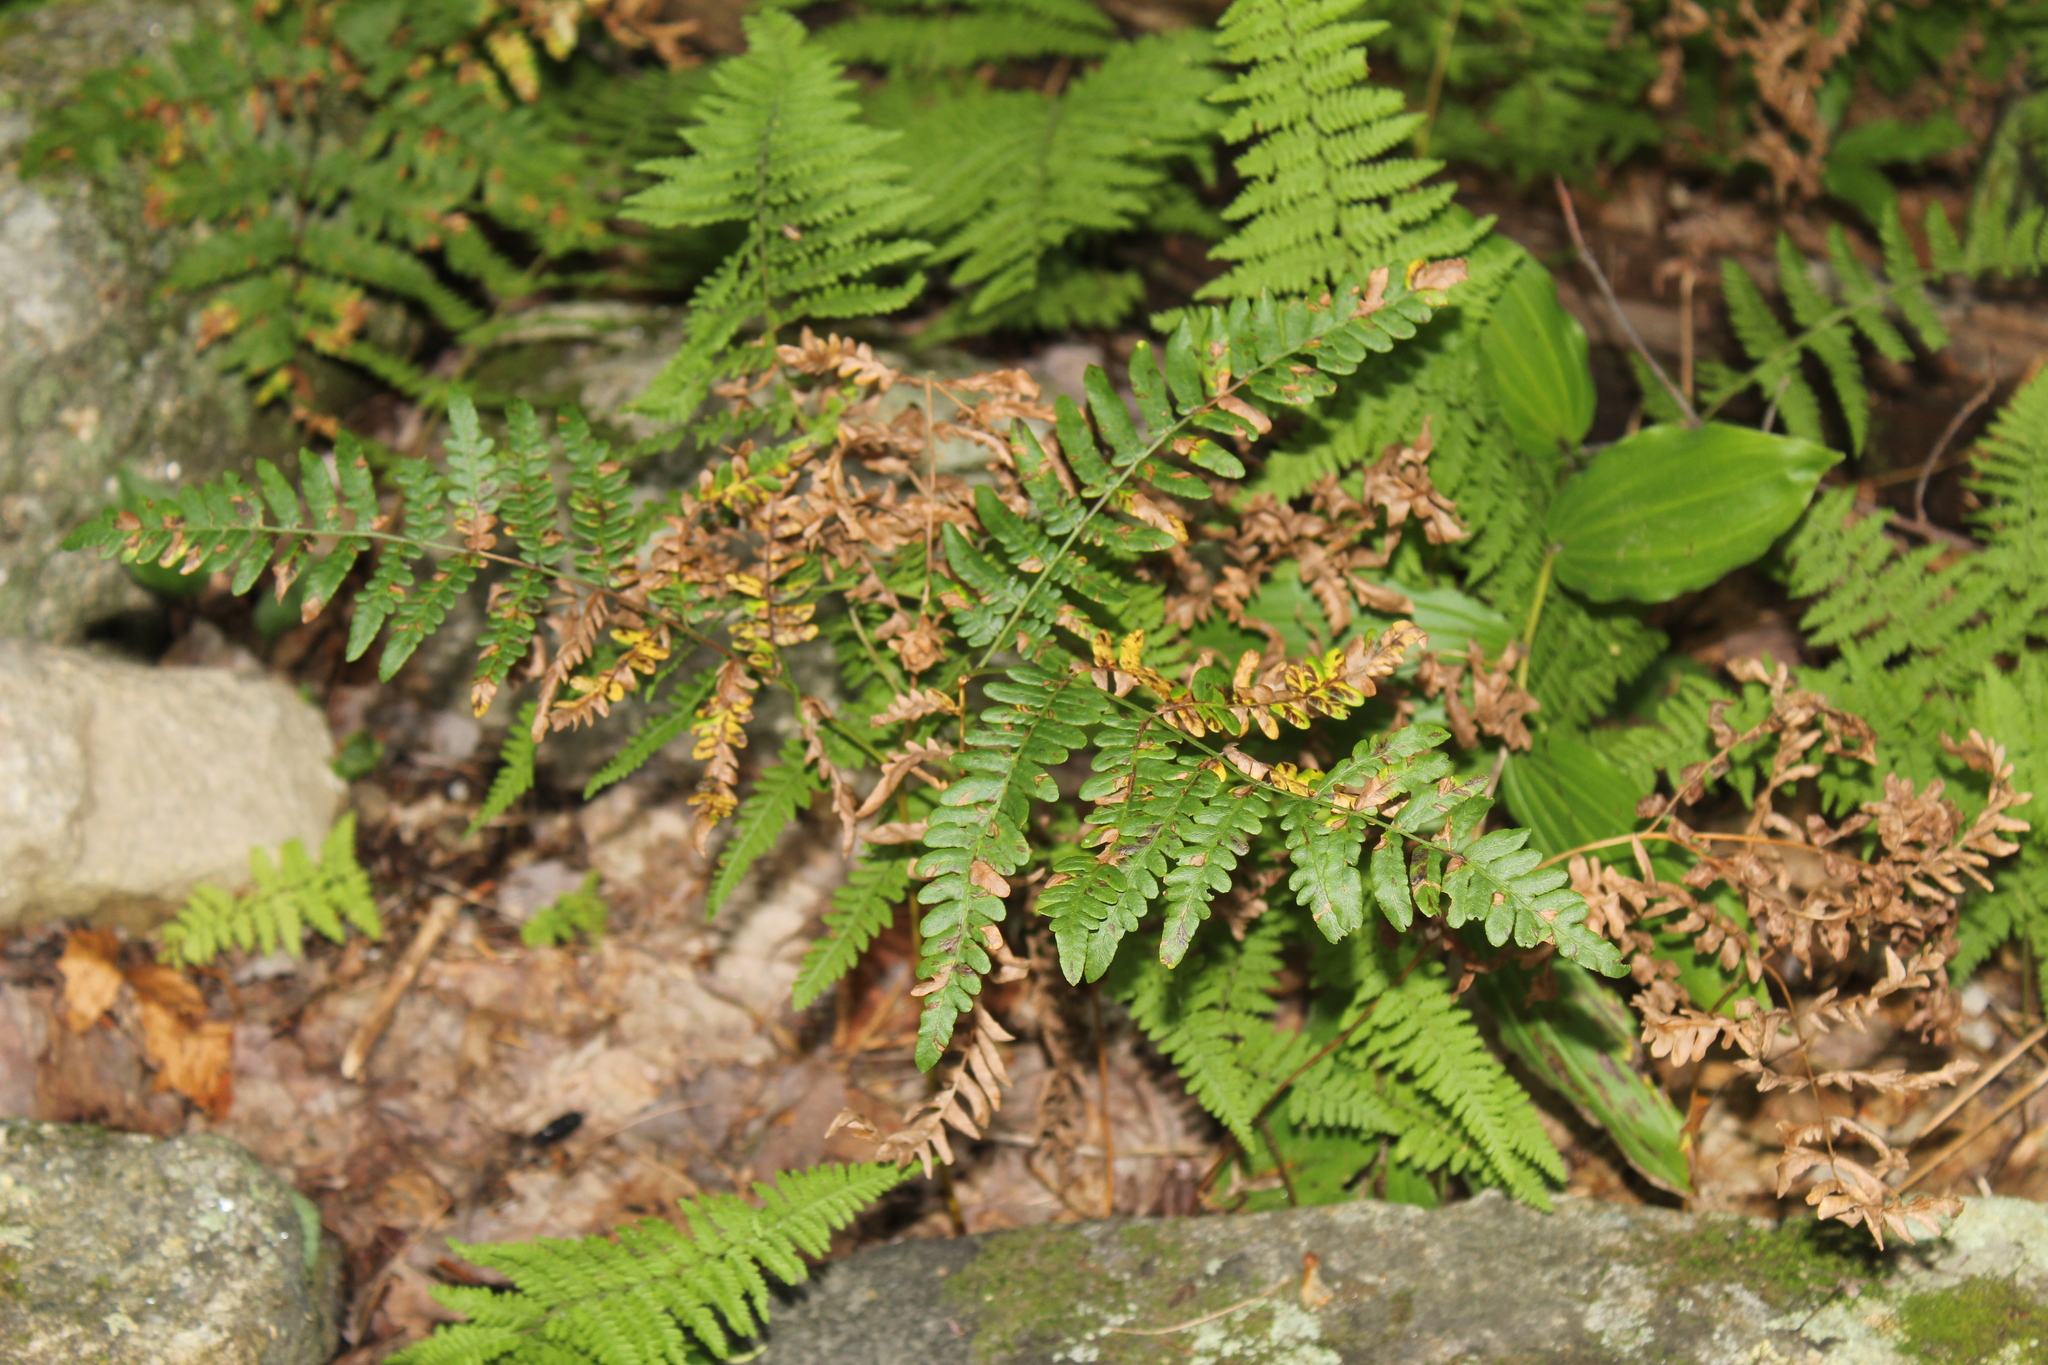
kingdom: Plantae
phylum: Tracheophyta
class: Polypodiopsida
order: Polypodiales
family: Dennstaedtiaceae
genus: Pteridium
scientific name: Pteridium aquilinum
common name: Bracken
